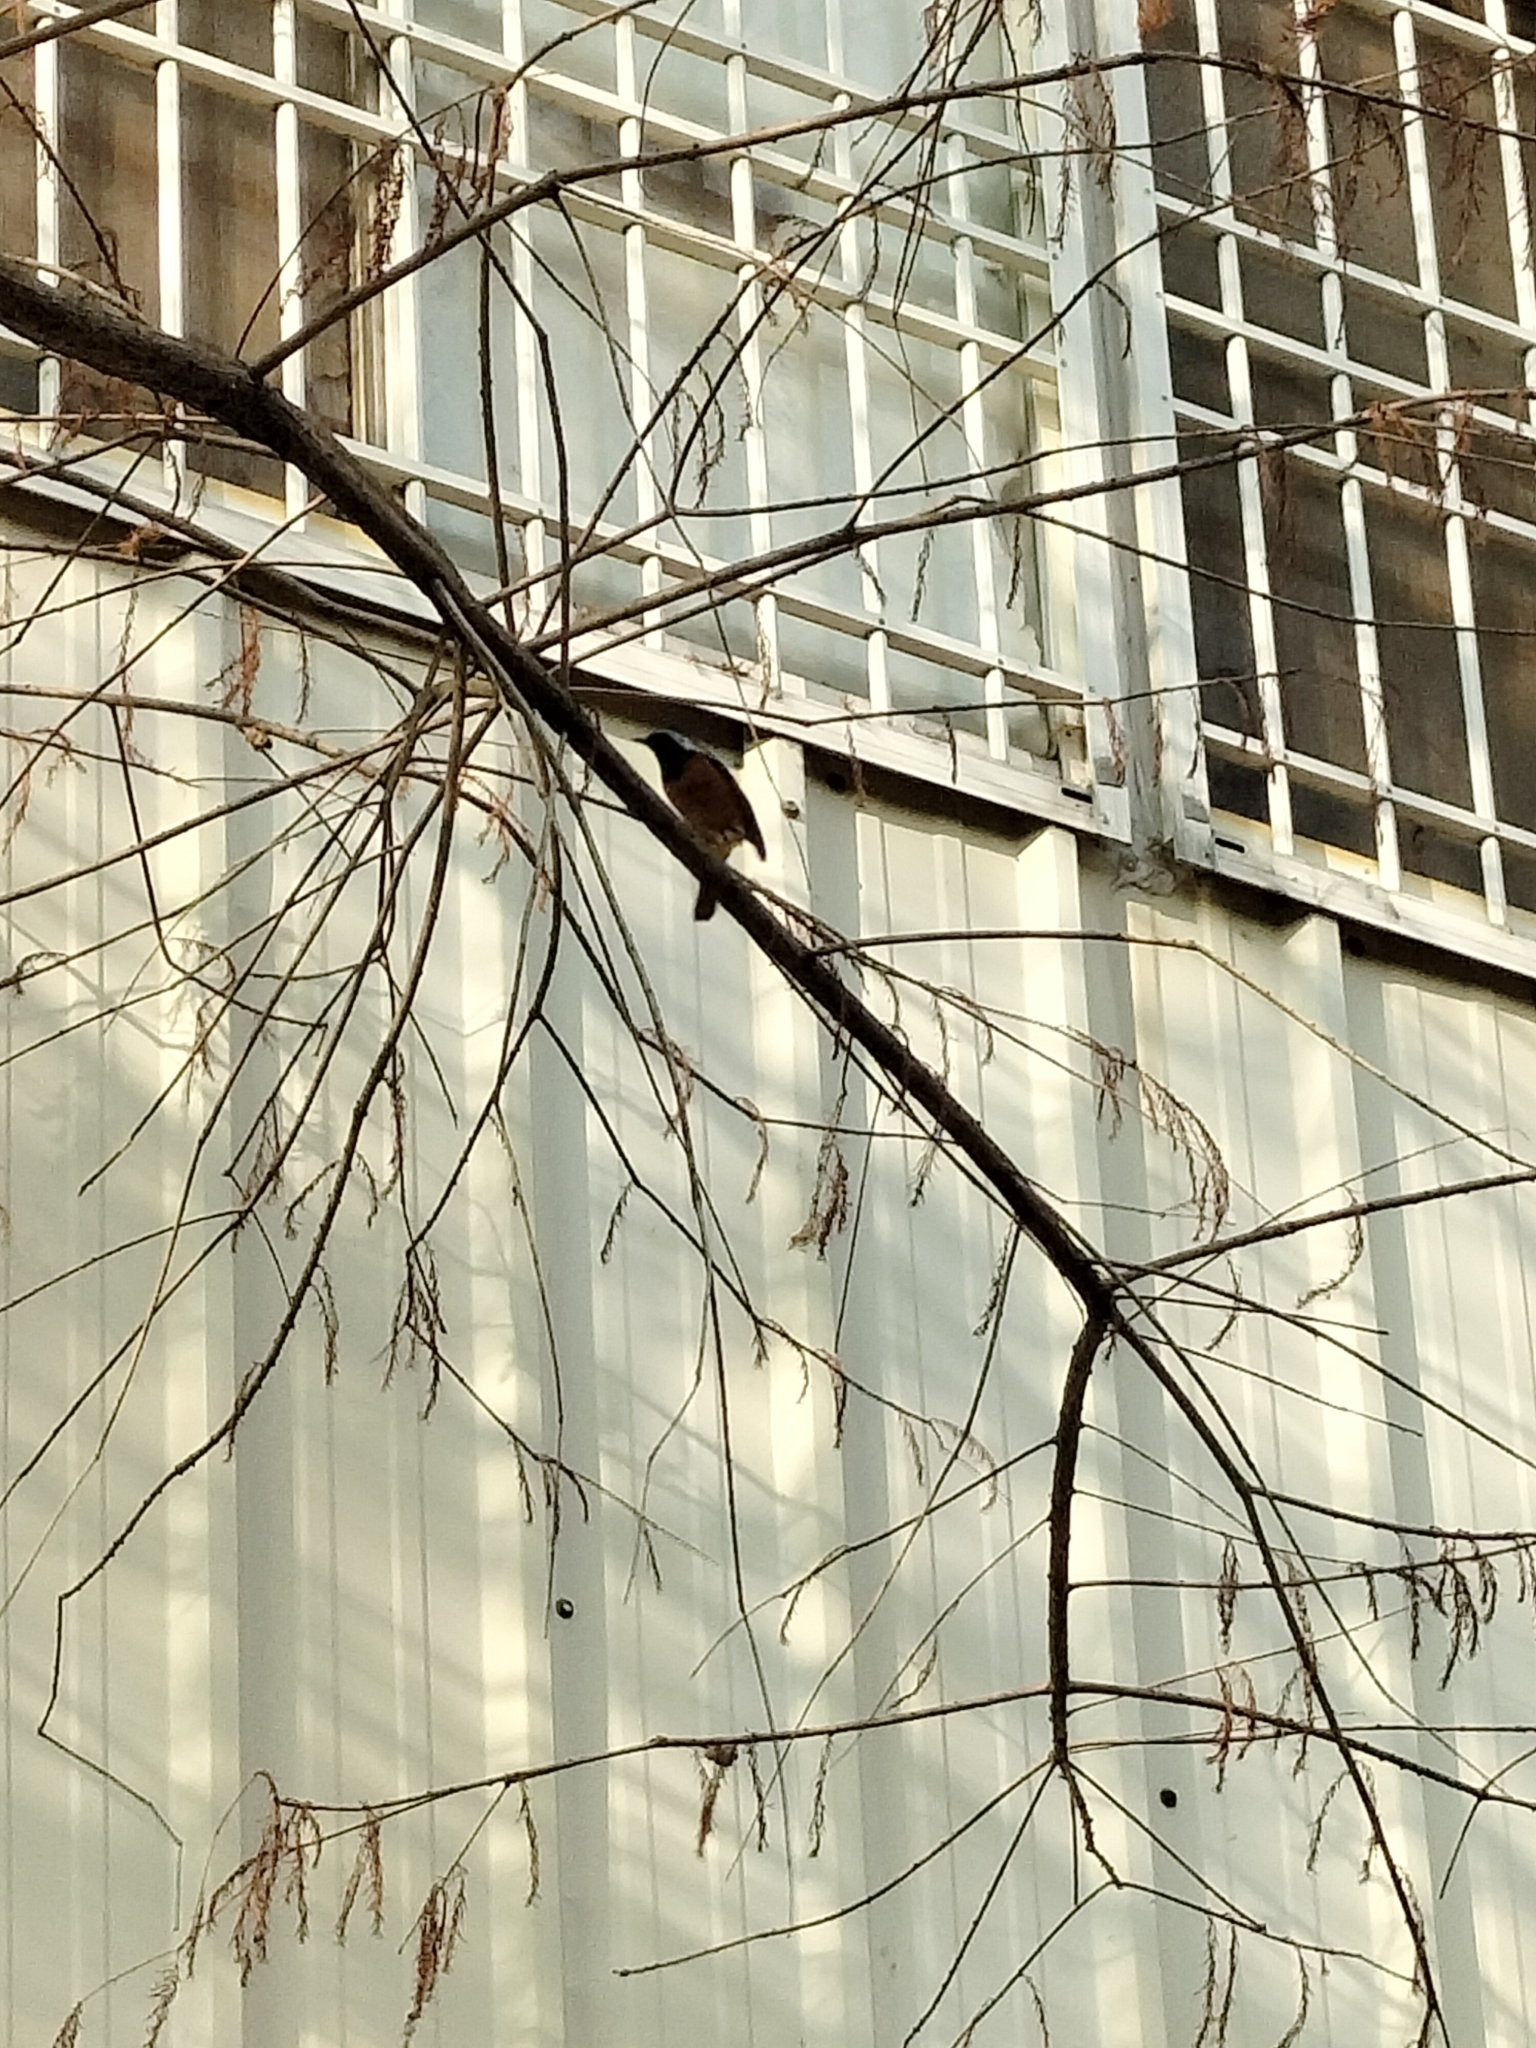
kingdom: Animalia
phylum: Chordata
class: Aves
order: Passeriformes
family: Muscicapidae
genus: Phoenicurus
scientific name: Phoenicurus auroreus
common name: Daurian redstart
